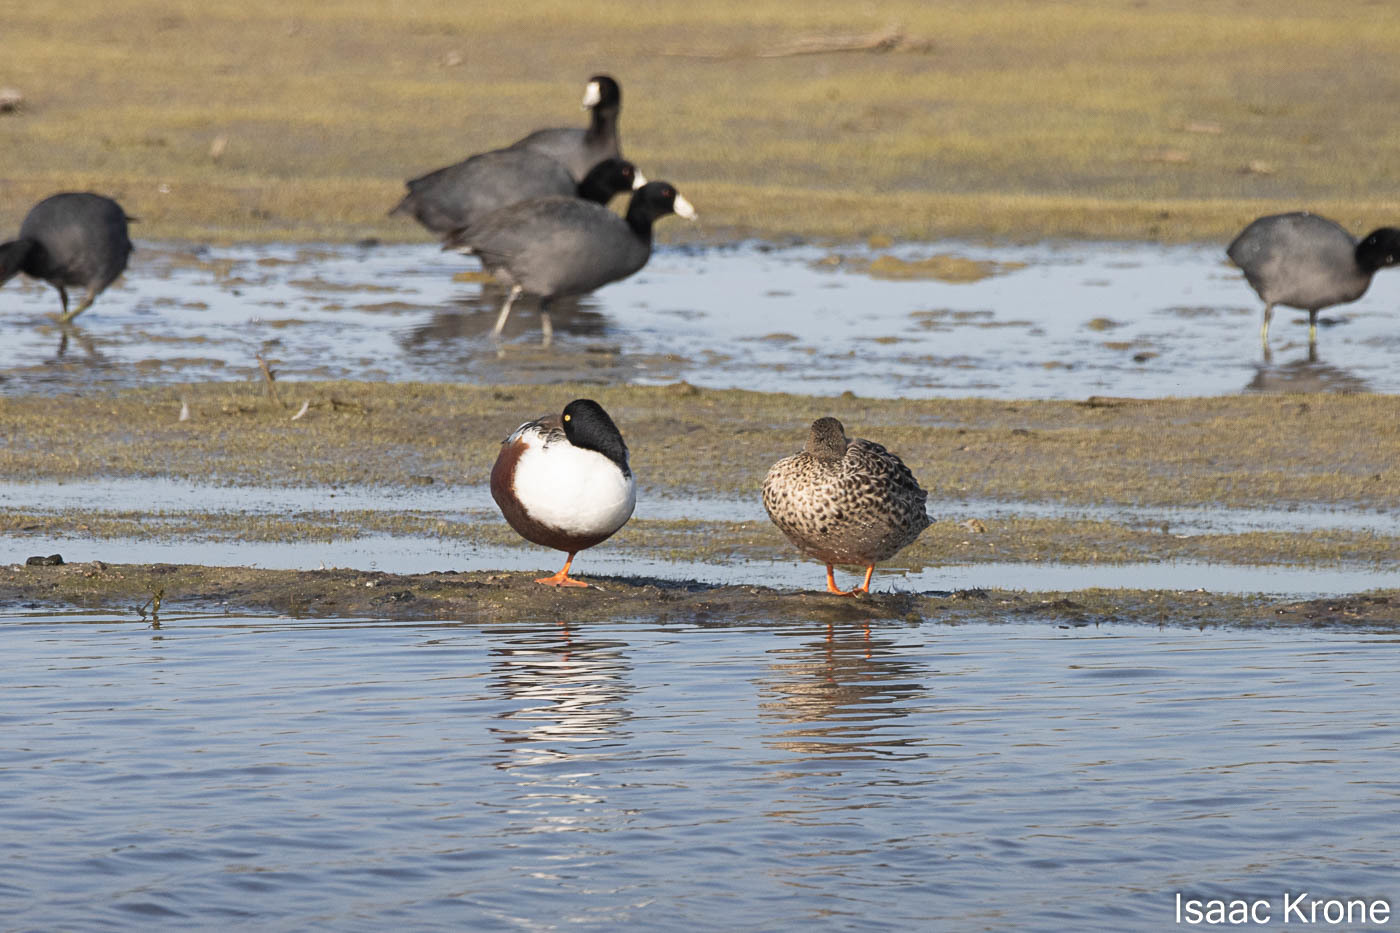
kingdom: Animalia
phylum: Chordata
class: Aves
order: Anseriformes
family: Anatidae
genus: Spatula
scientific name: Spatula clypeata
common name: Northern shoveler
